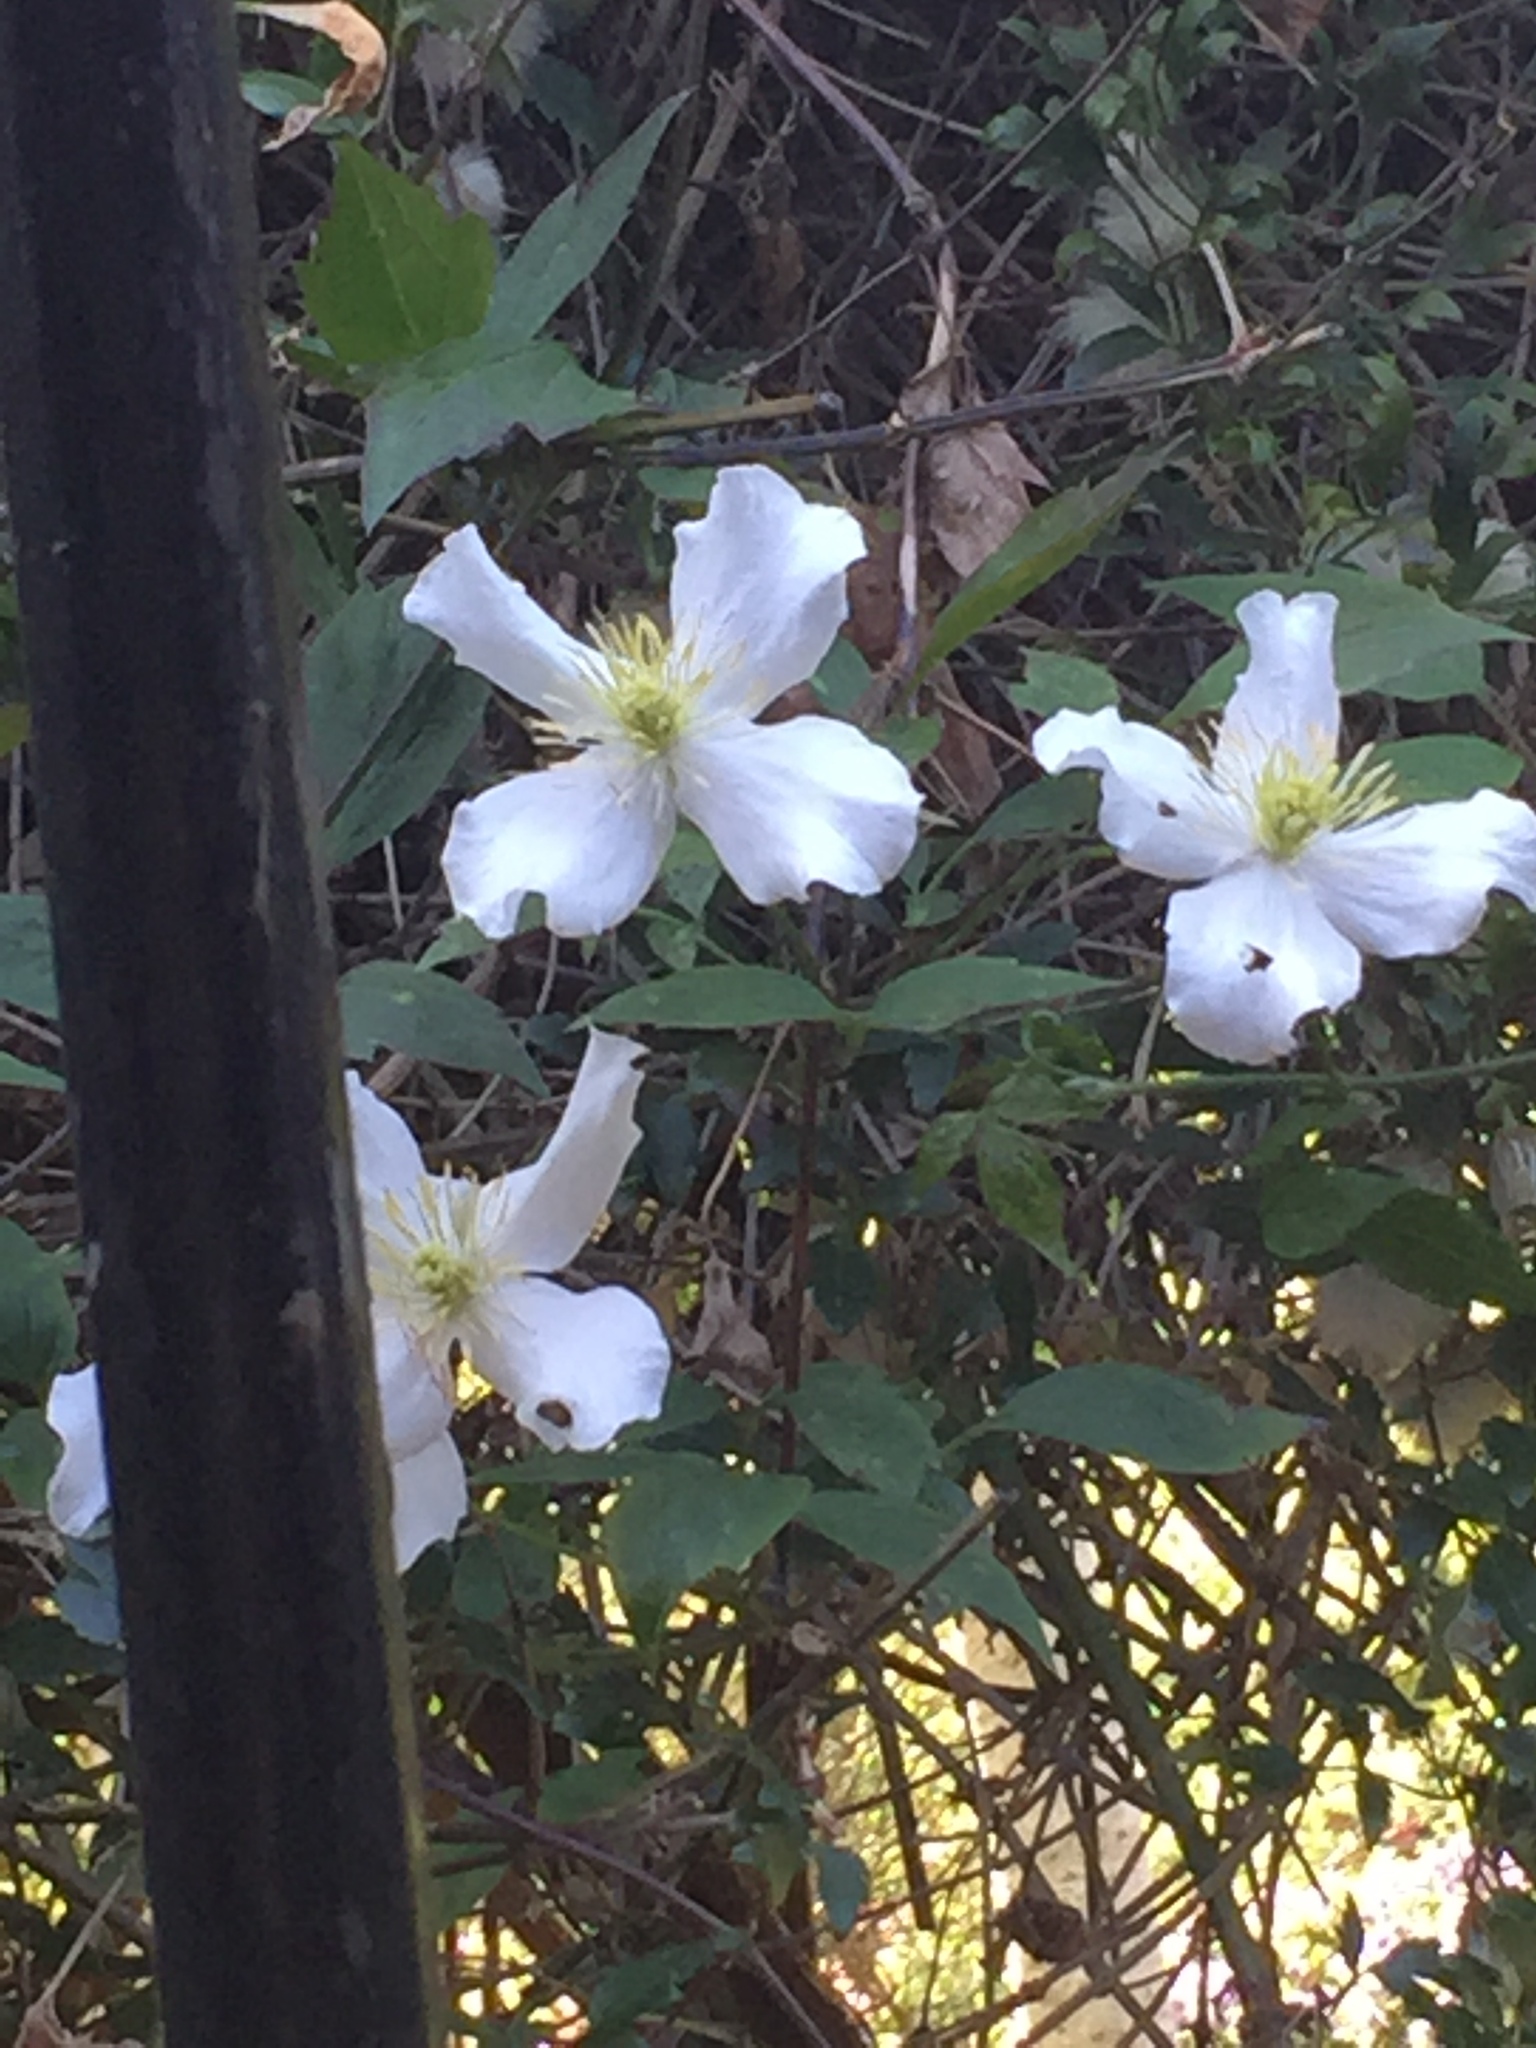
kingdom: Plantae
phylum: Tracheophyta
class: Magnoliopsida
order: Ranunculales
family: Ranunculaceae
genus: Clematis
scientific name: Clematis montana
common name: Himalayan clematis
